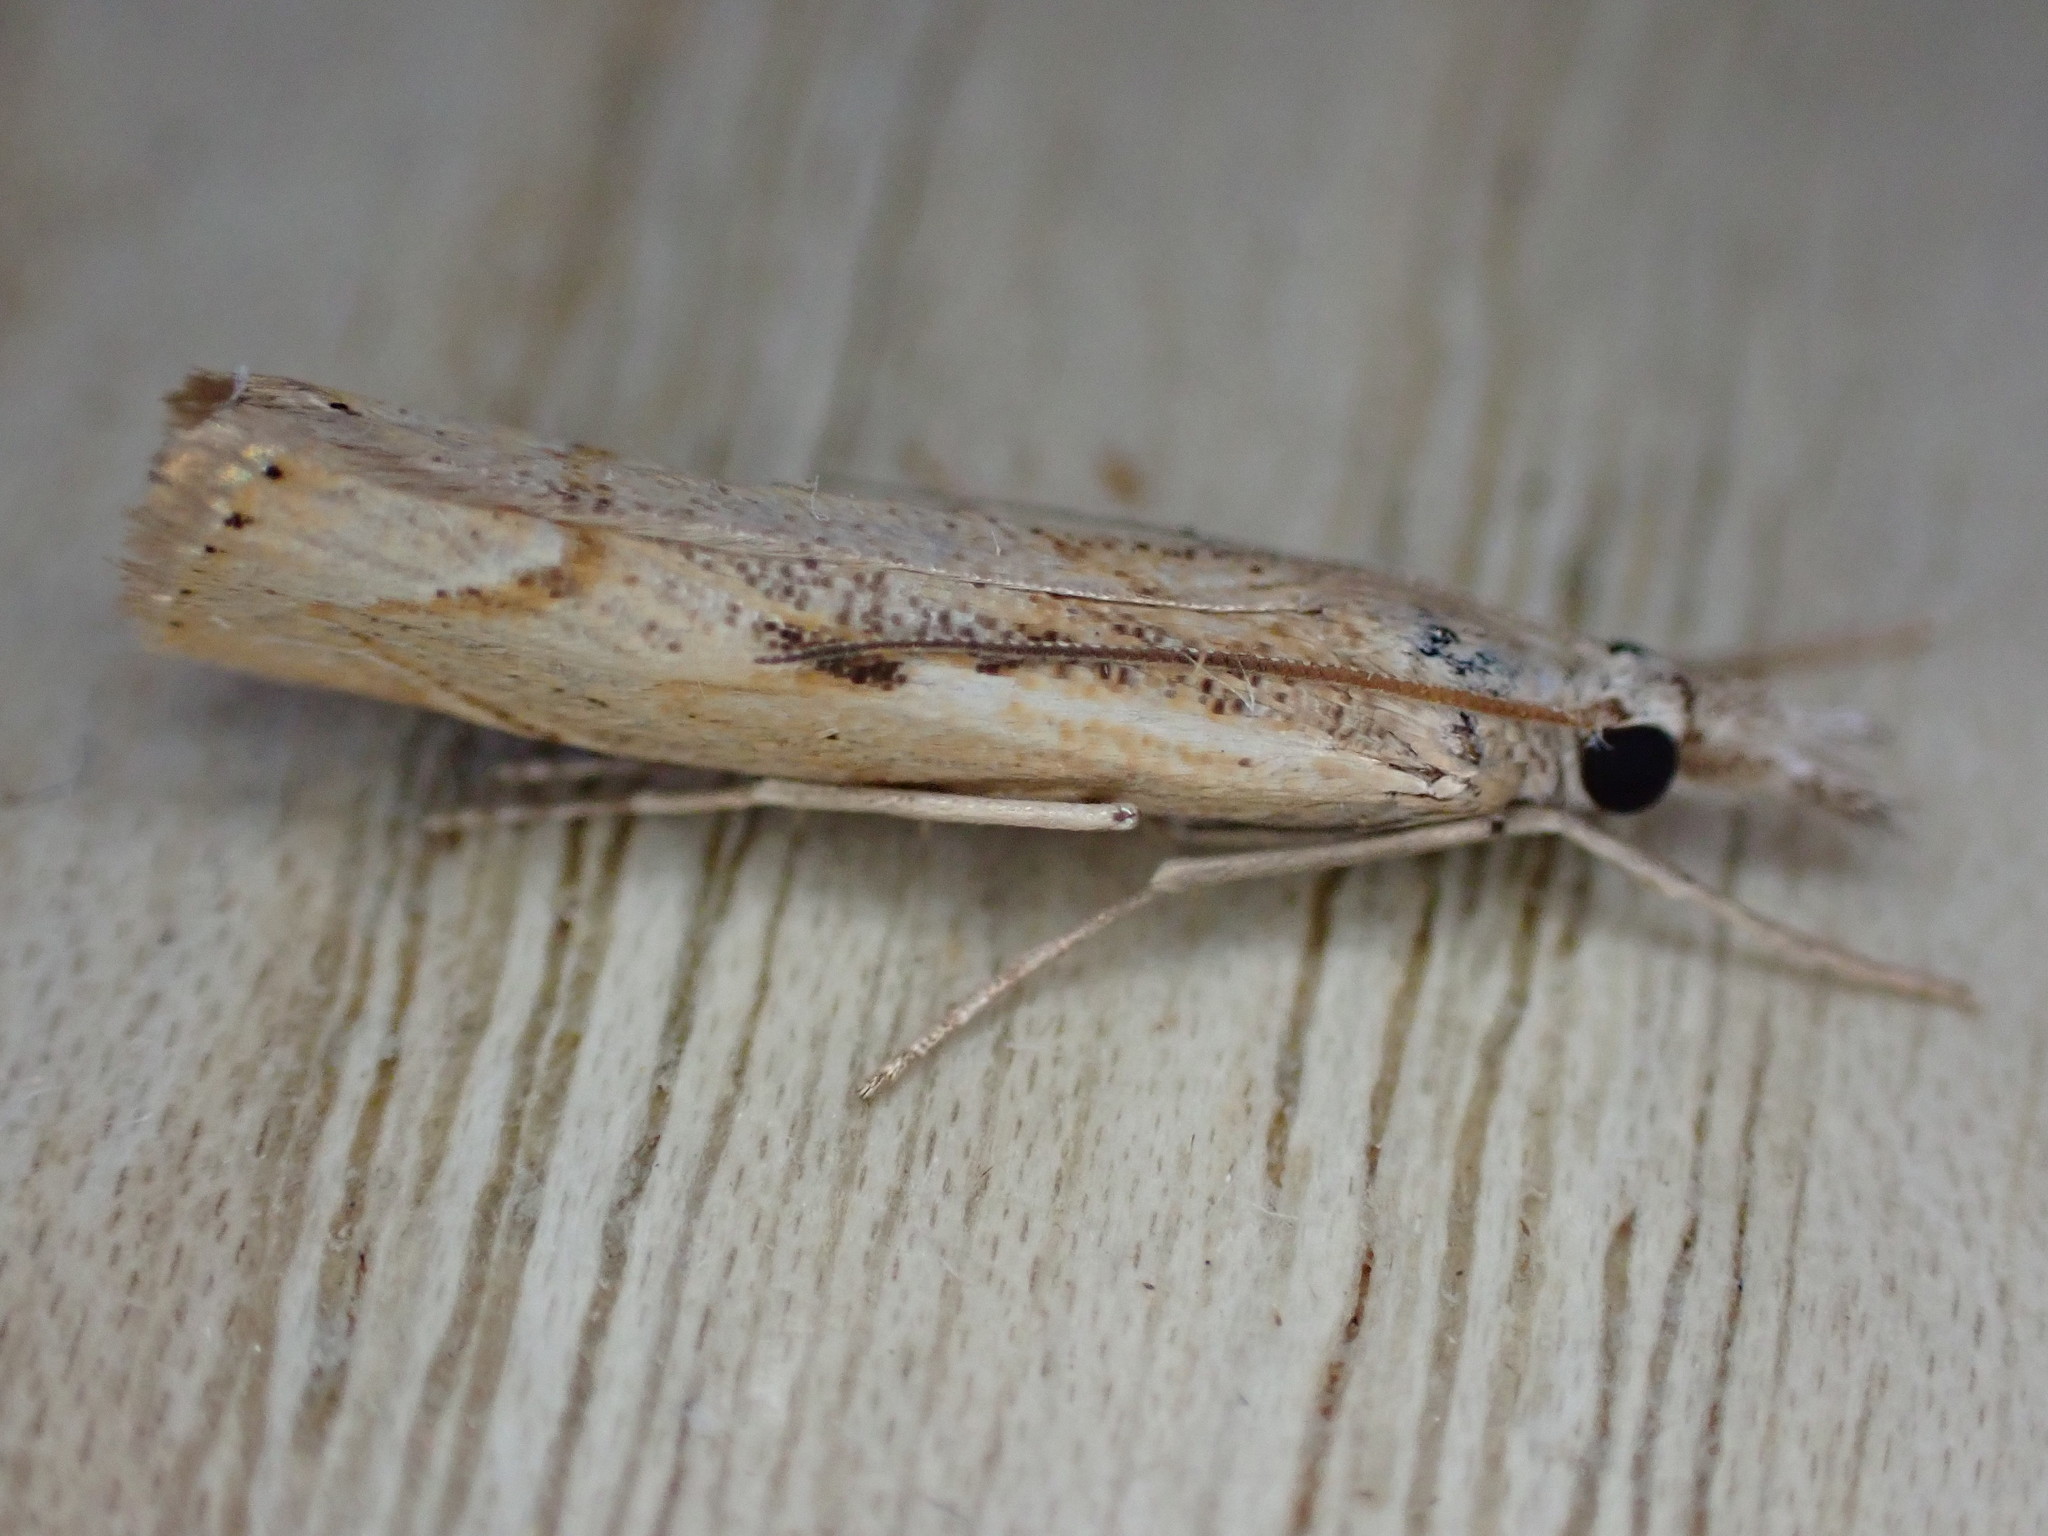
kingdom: Animalia
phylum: Arthropoda
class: Insecta
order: Lepidoptera
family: Crambidae
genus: Agriphila
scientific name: Agriphila geniculea
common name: Elbow-stripe grass-veneer
